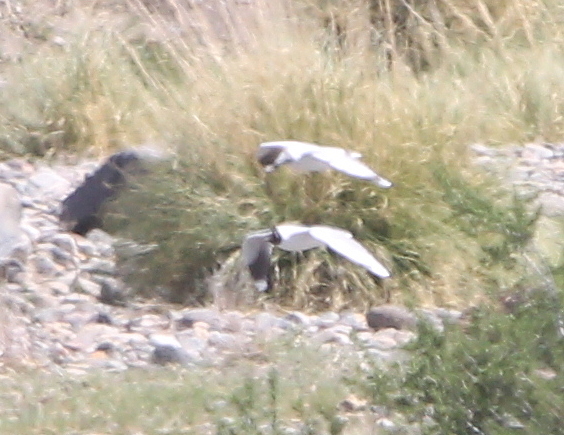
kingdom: Animalia
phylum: Chordata
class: Aves
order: Charadriiformes
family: Laridae
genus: Chroicocephalus
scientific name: Chroicocephalus serranus
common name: Andean gull
